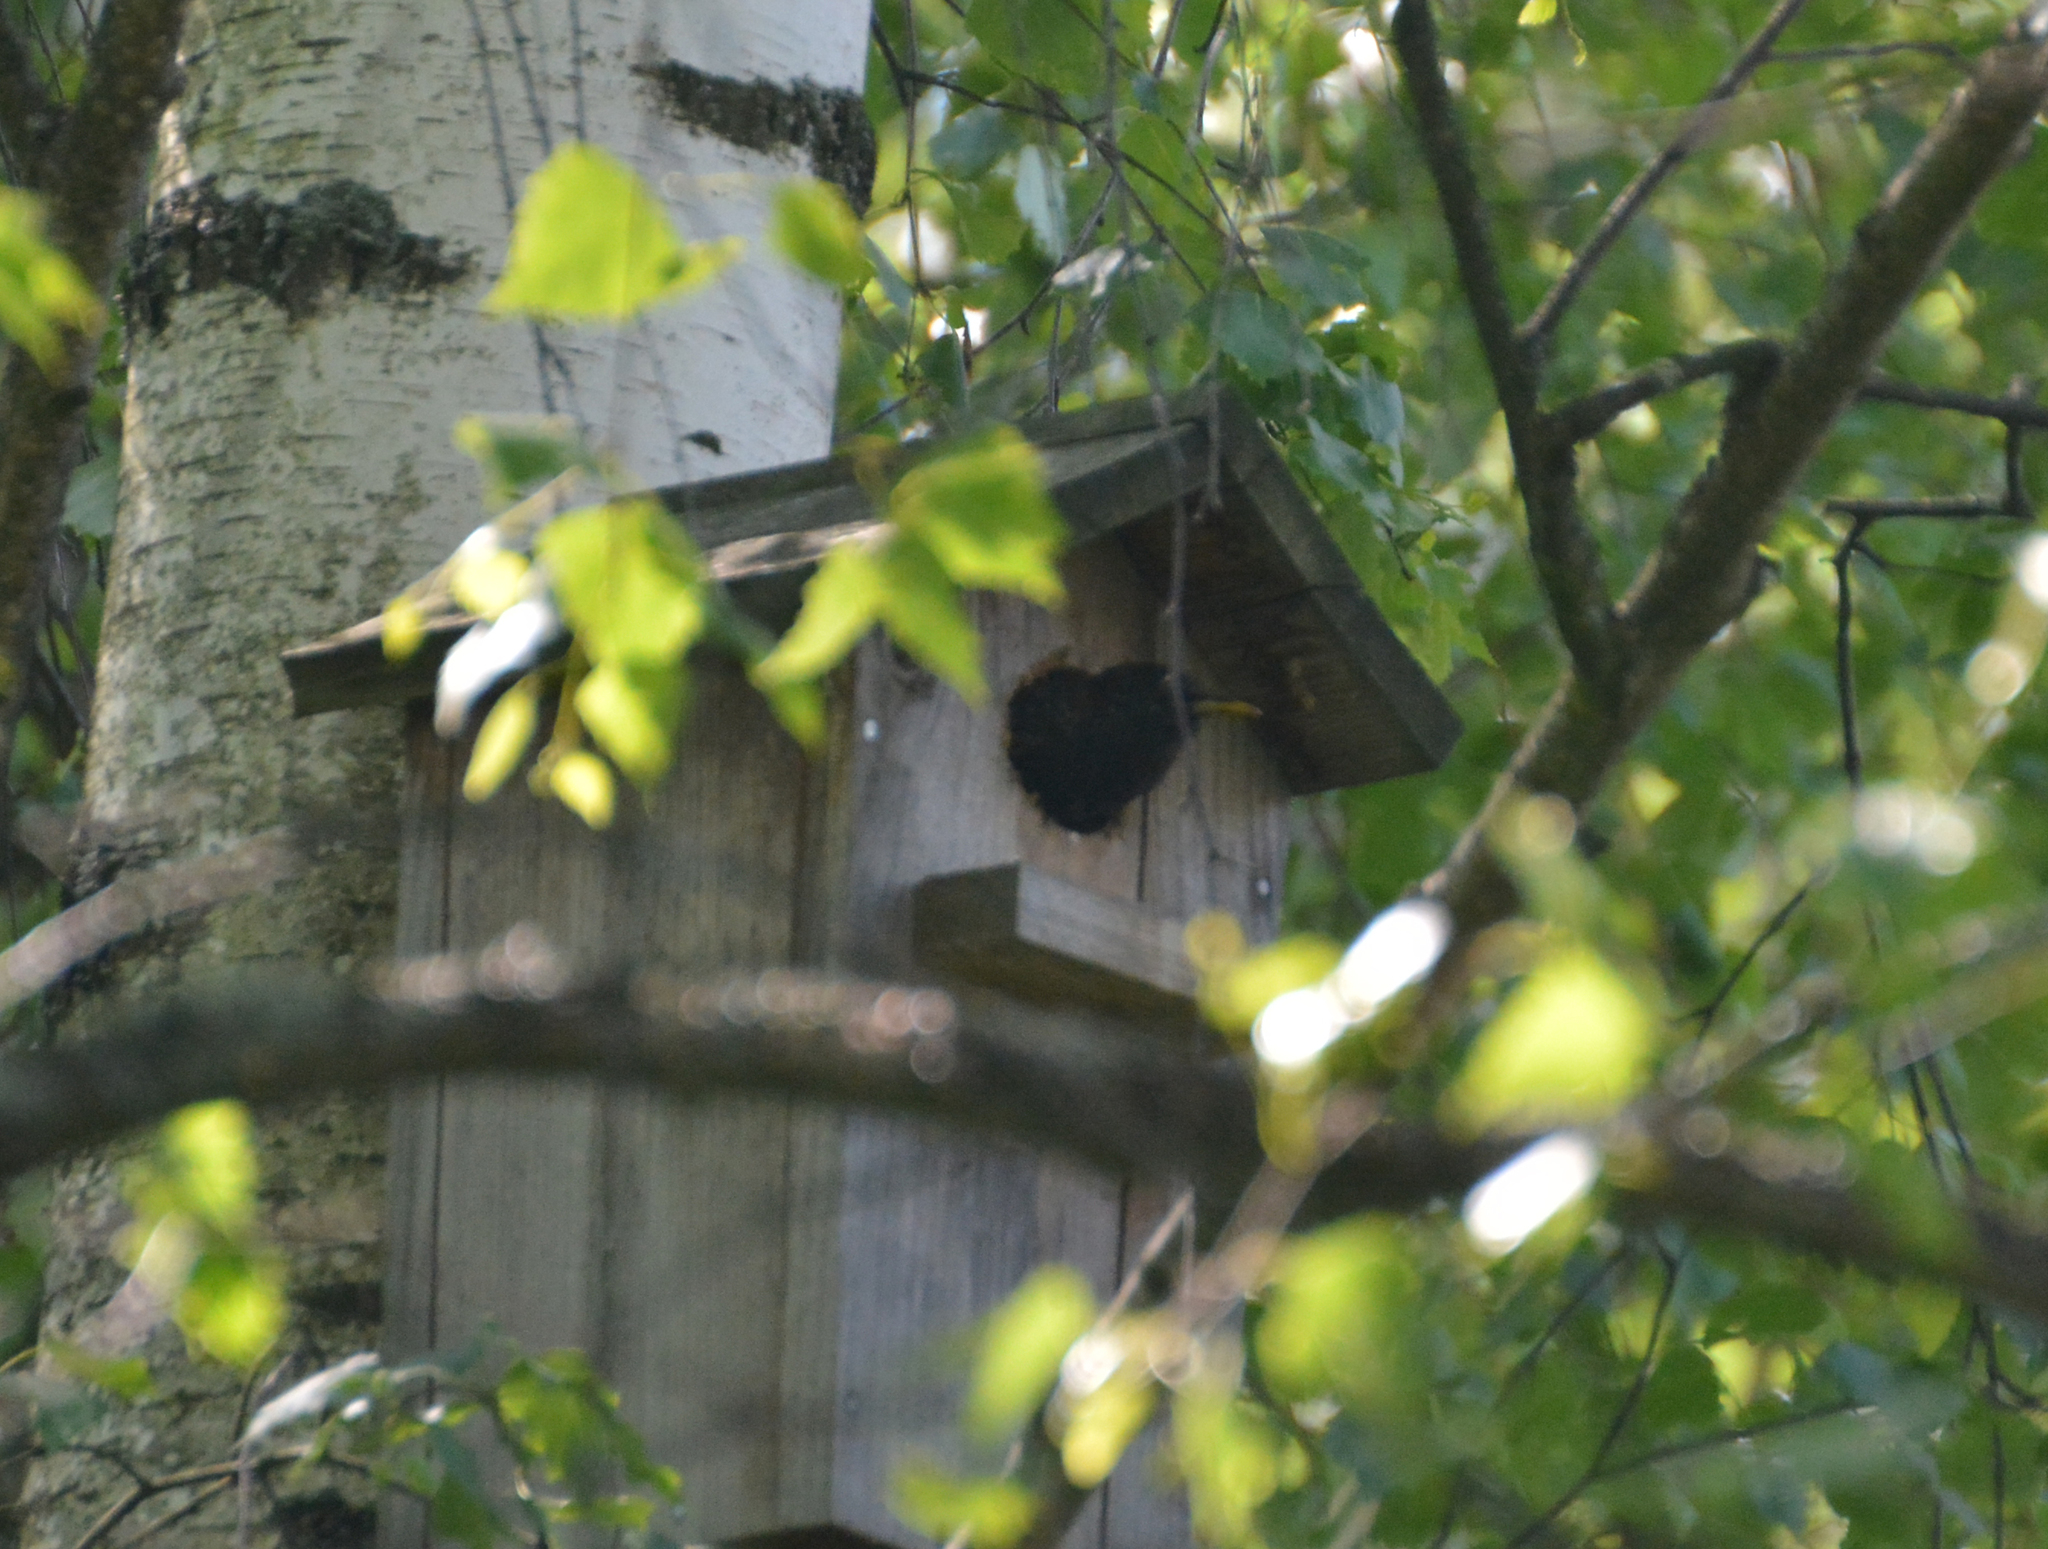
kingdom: Animalia
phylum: Chordata
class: Aves
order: Passeriformes
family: Sturnidae
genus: Sturnus
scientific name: Sturnus vulgaris
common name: Common starling
